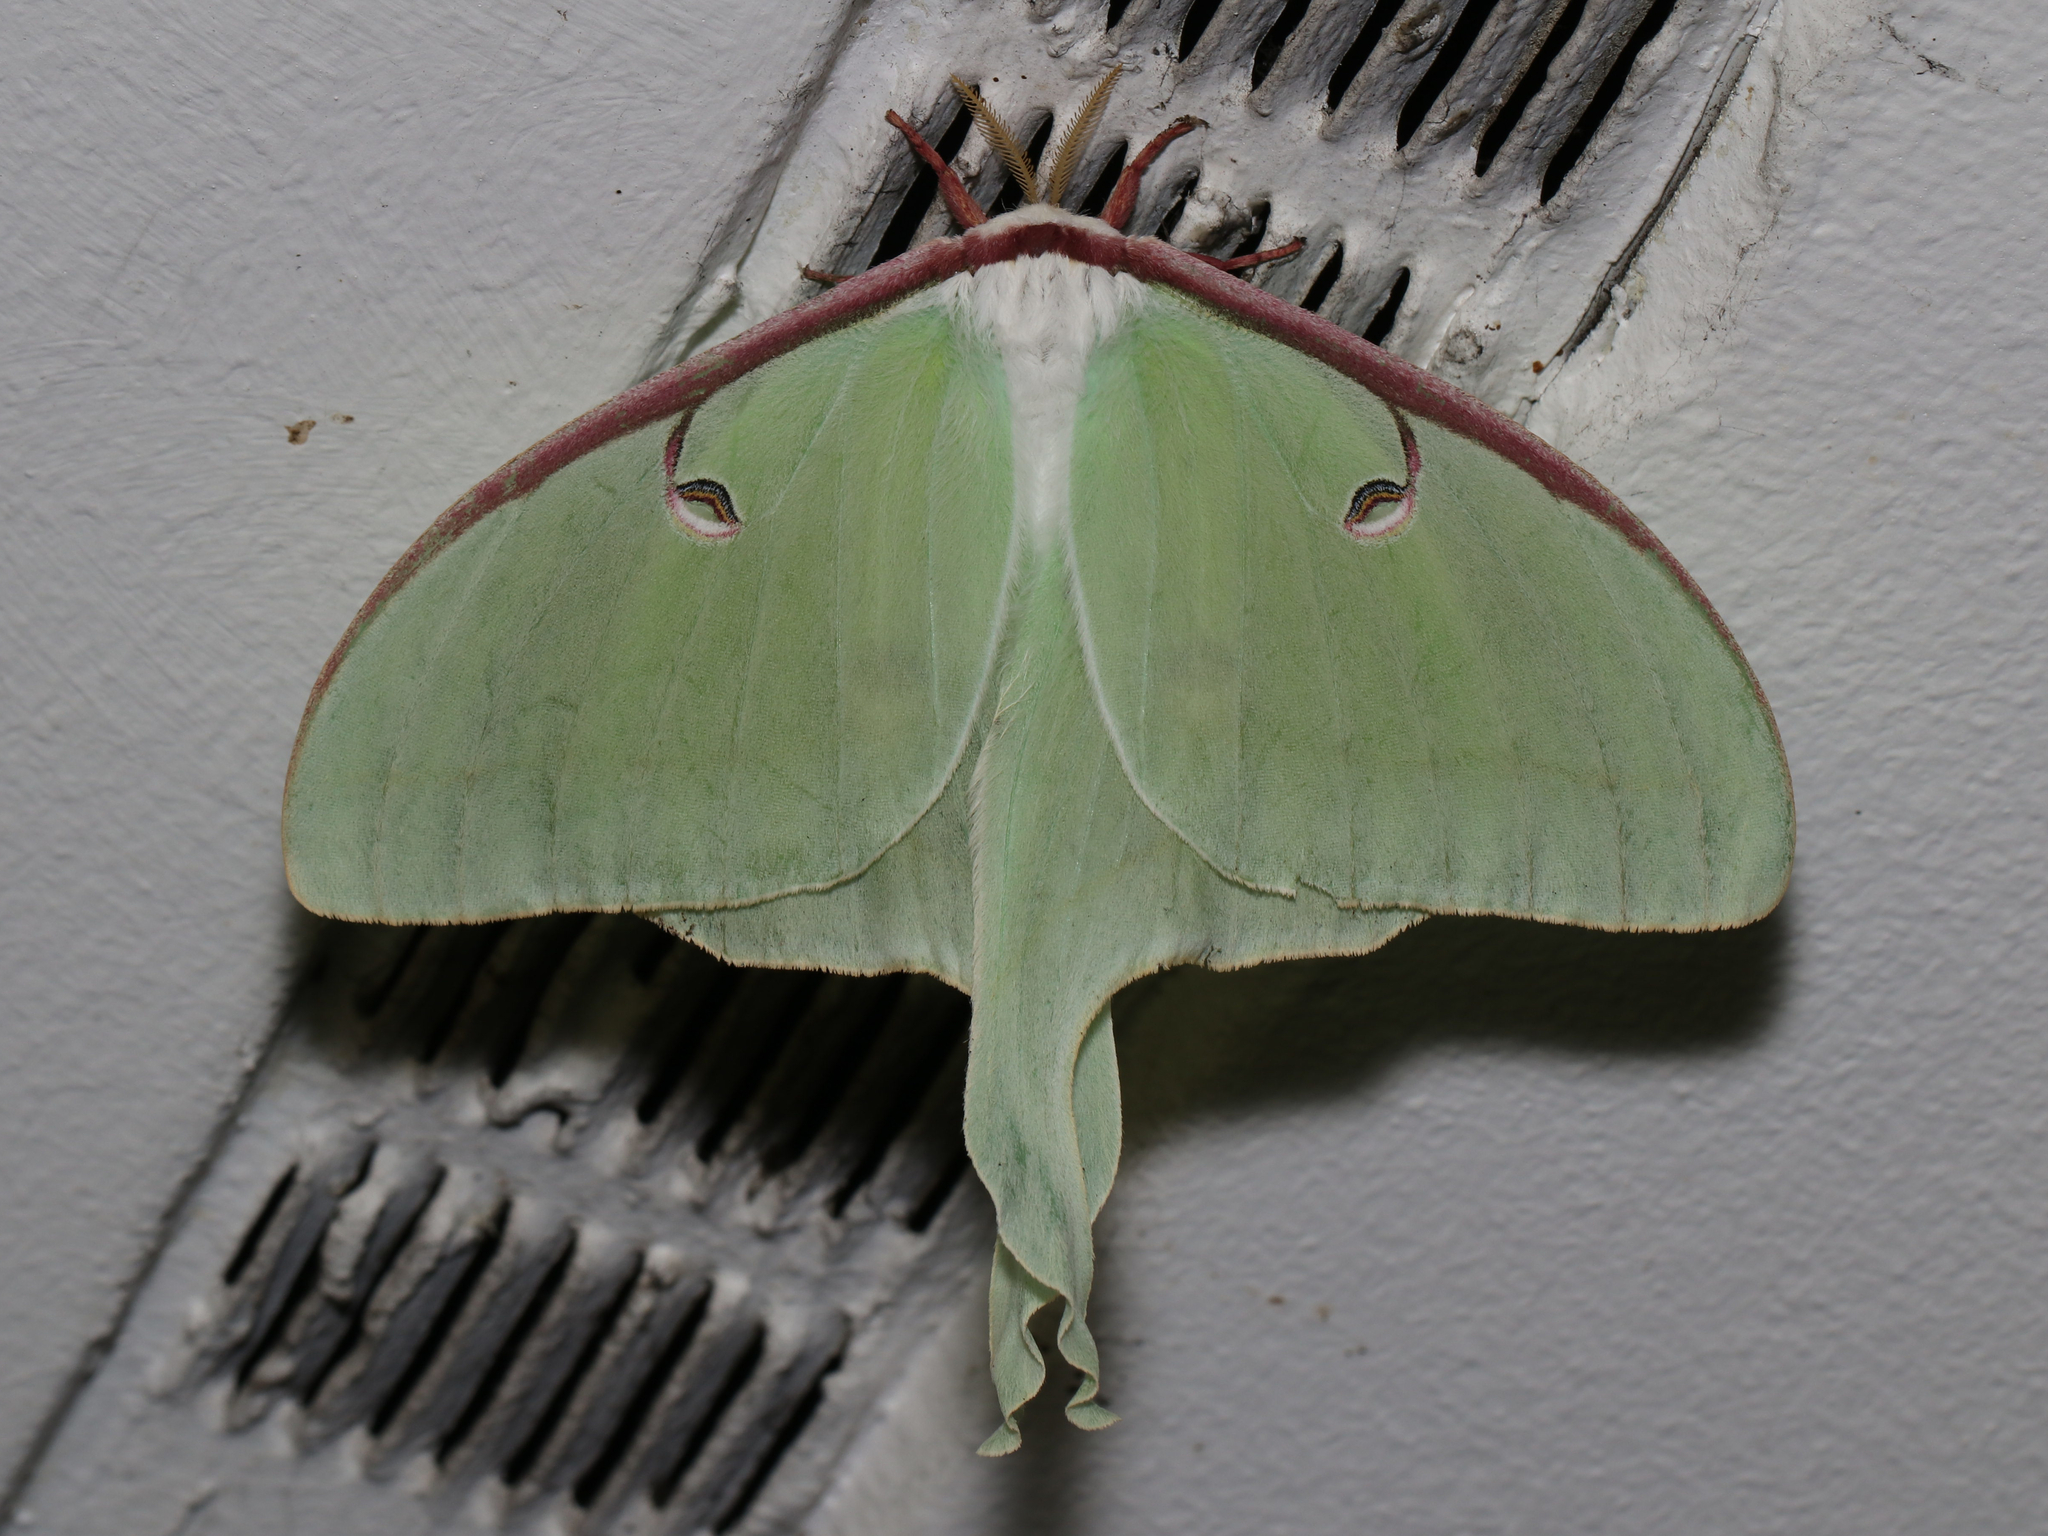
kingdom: Animalia
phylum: Arthropoda
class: Insecta
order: Lepidoptera
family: Saturniidae
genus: Actias
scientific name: Actias luna
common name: Luna moth
